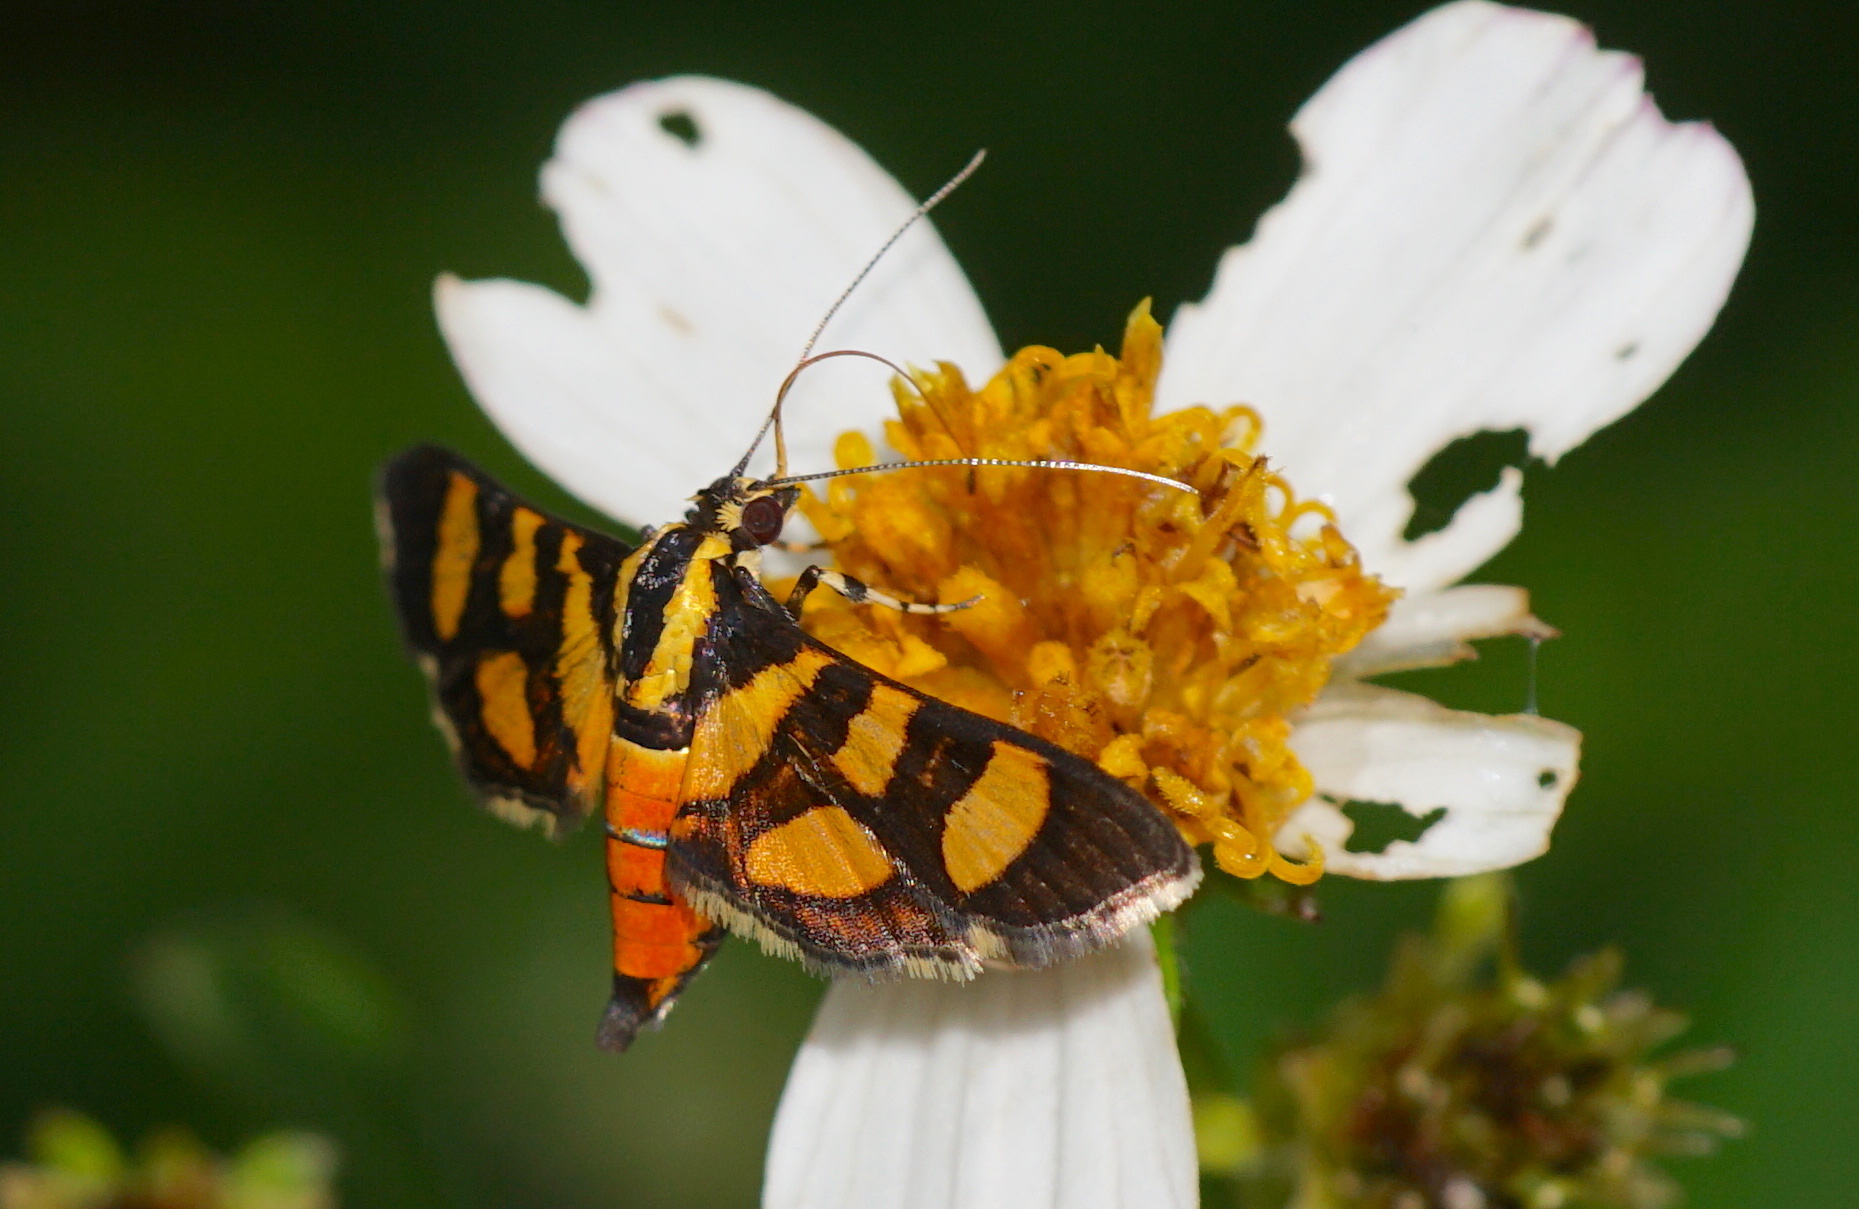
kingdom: Animalia
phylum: Arthropoda
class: Insecta
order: Lepidoptera
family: Crambidae
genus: Syngamia
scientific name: Syngamia florella
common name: Orange-spotted flower moth
